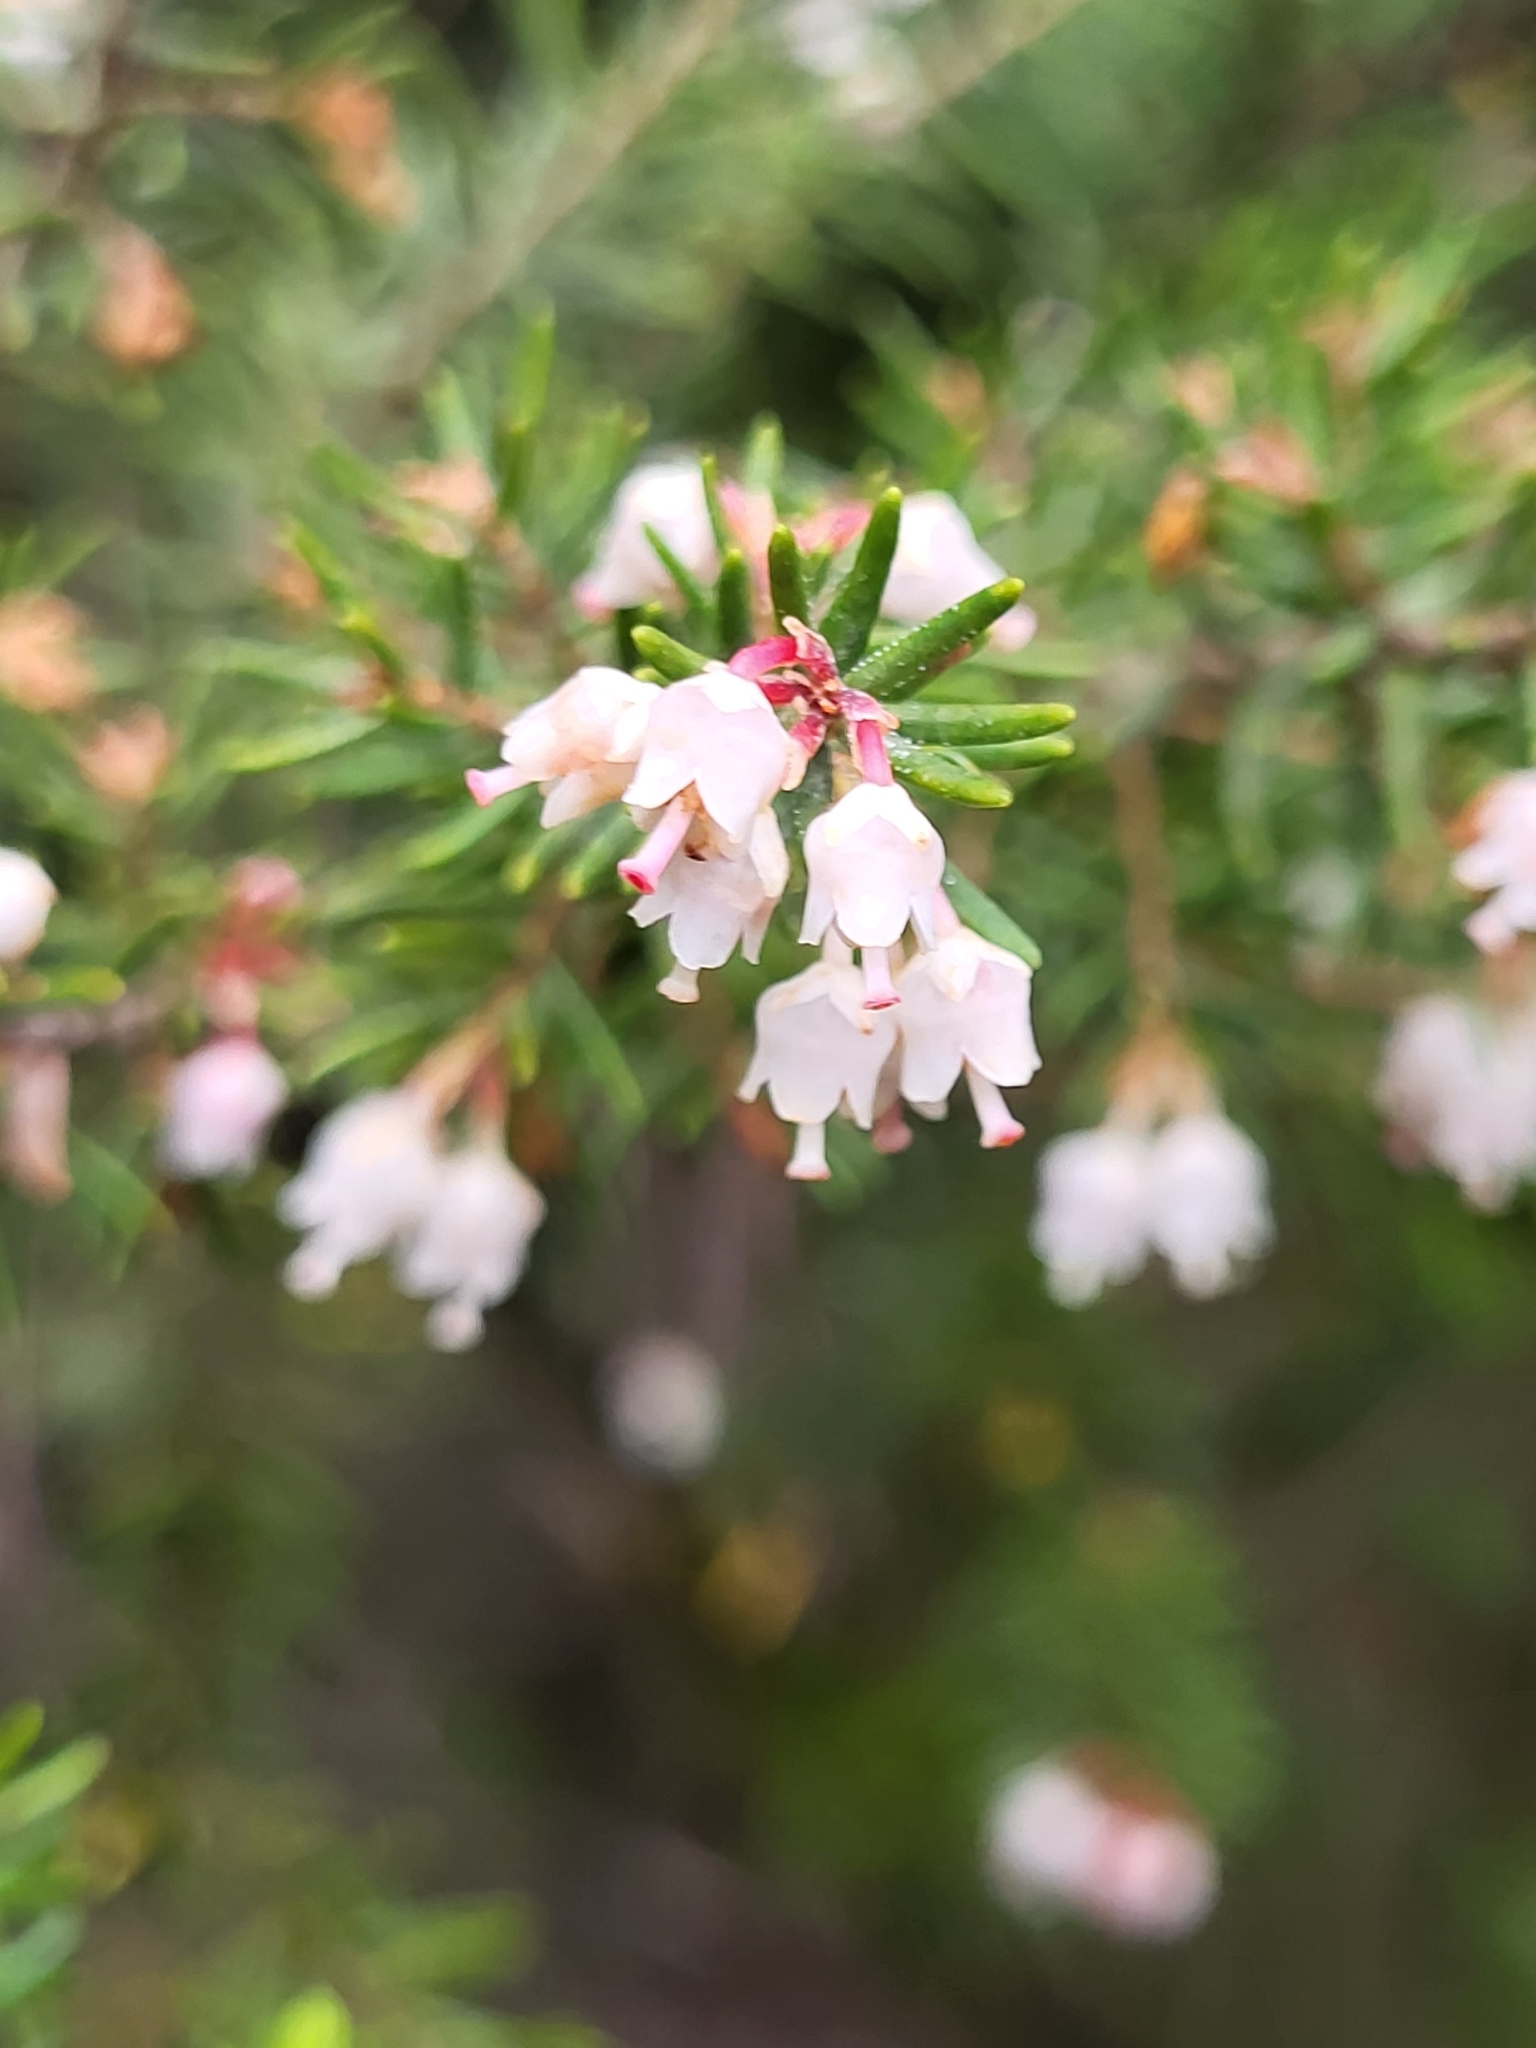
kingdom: Plantae
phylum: Tracheophyta
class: Magnoliopsida
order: Ericales
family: Ericaceae
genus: Erica
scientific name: Erica canariensis
